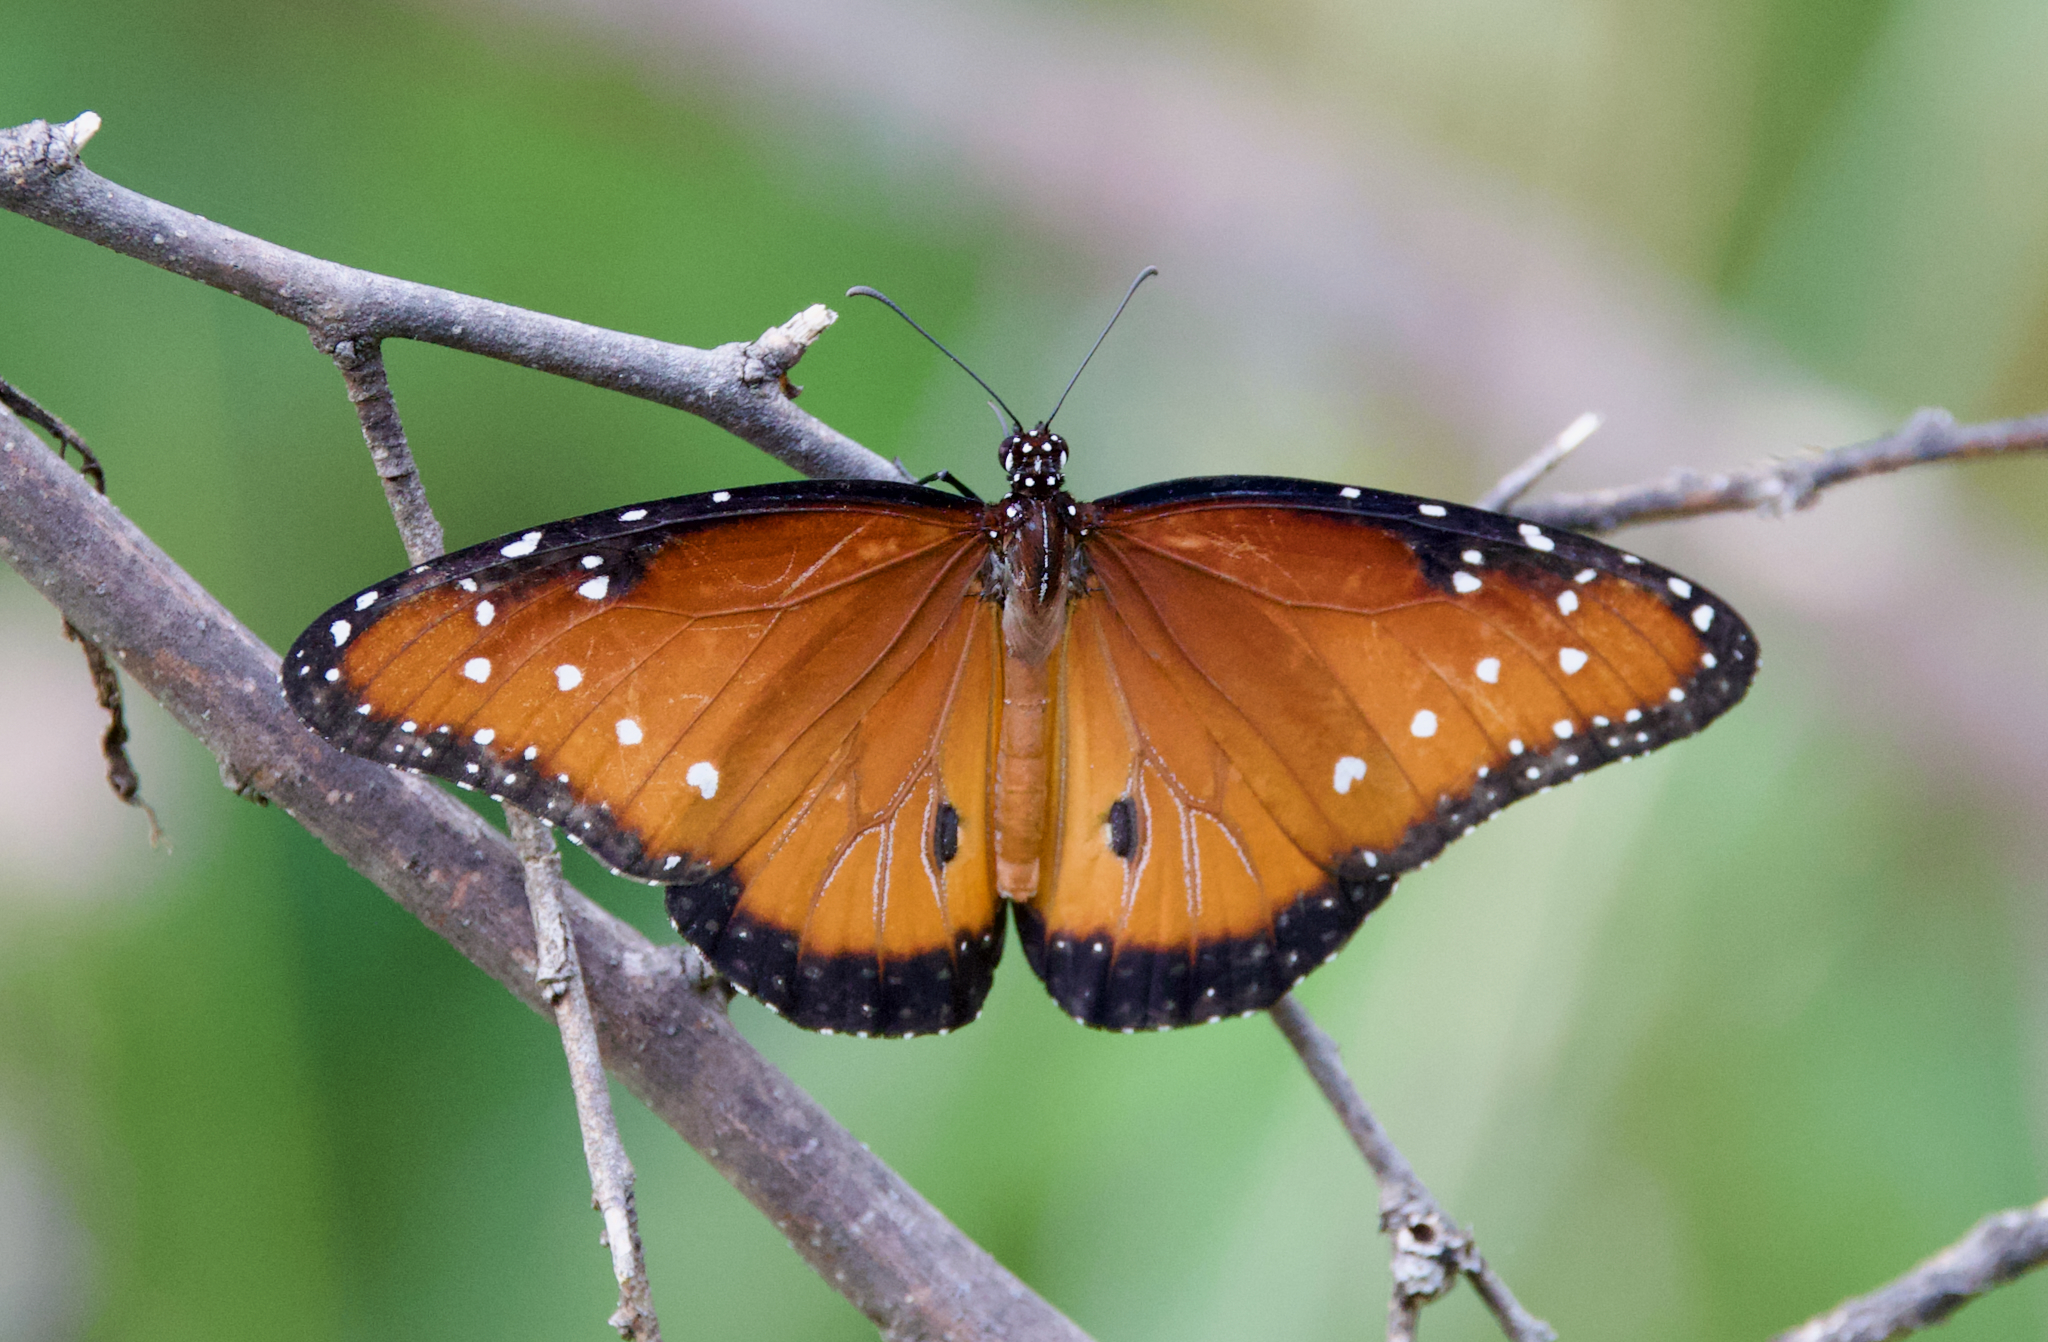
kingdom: Animalia
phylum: Arthropoda
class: Insecta
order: Lepidoptera
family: Nymphalidae
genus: Danaus
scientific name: Danaus gilippus
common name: Queen
